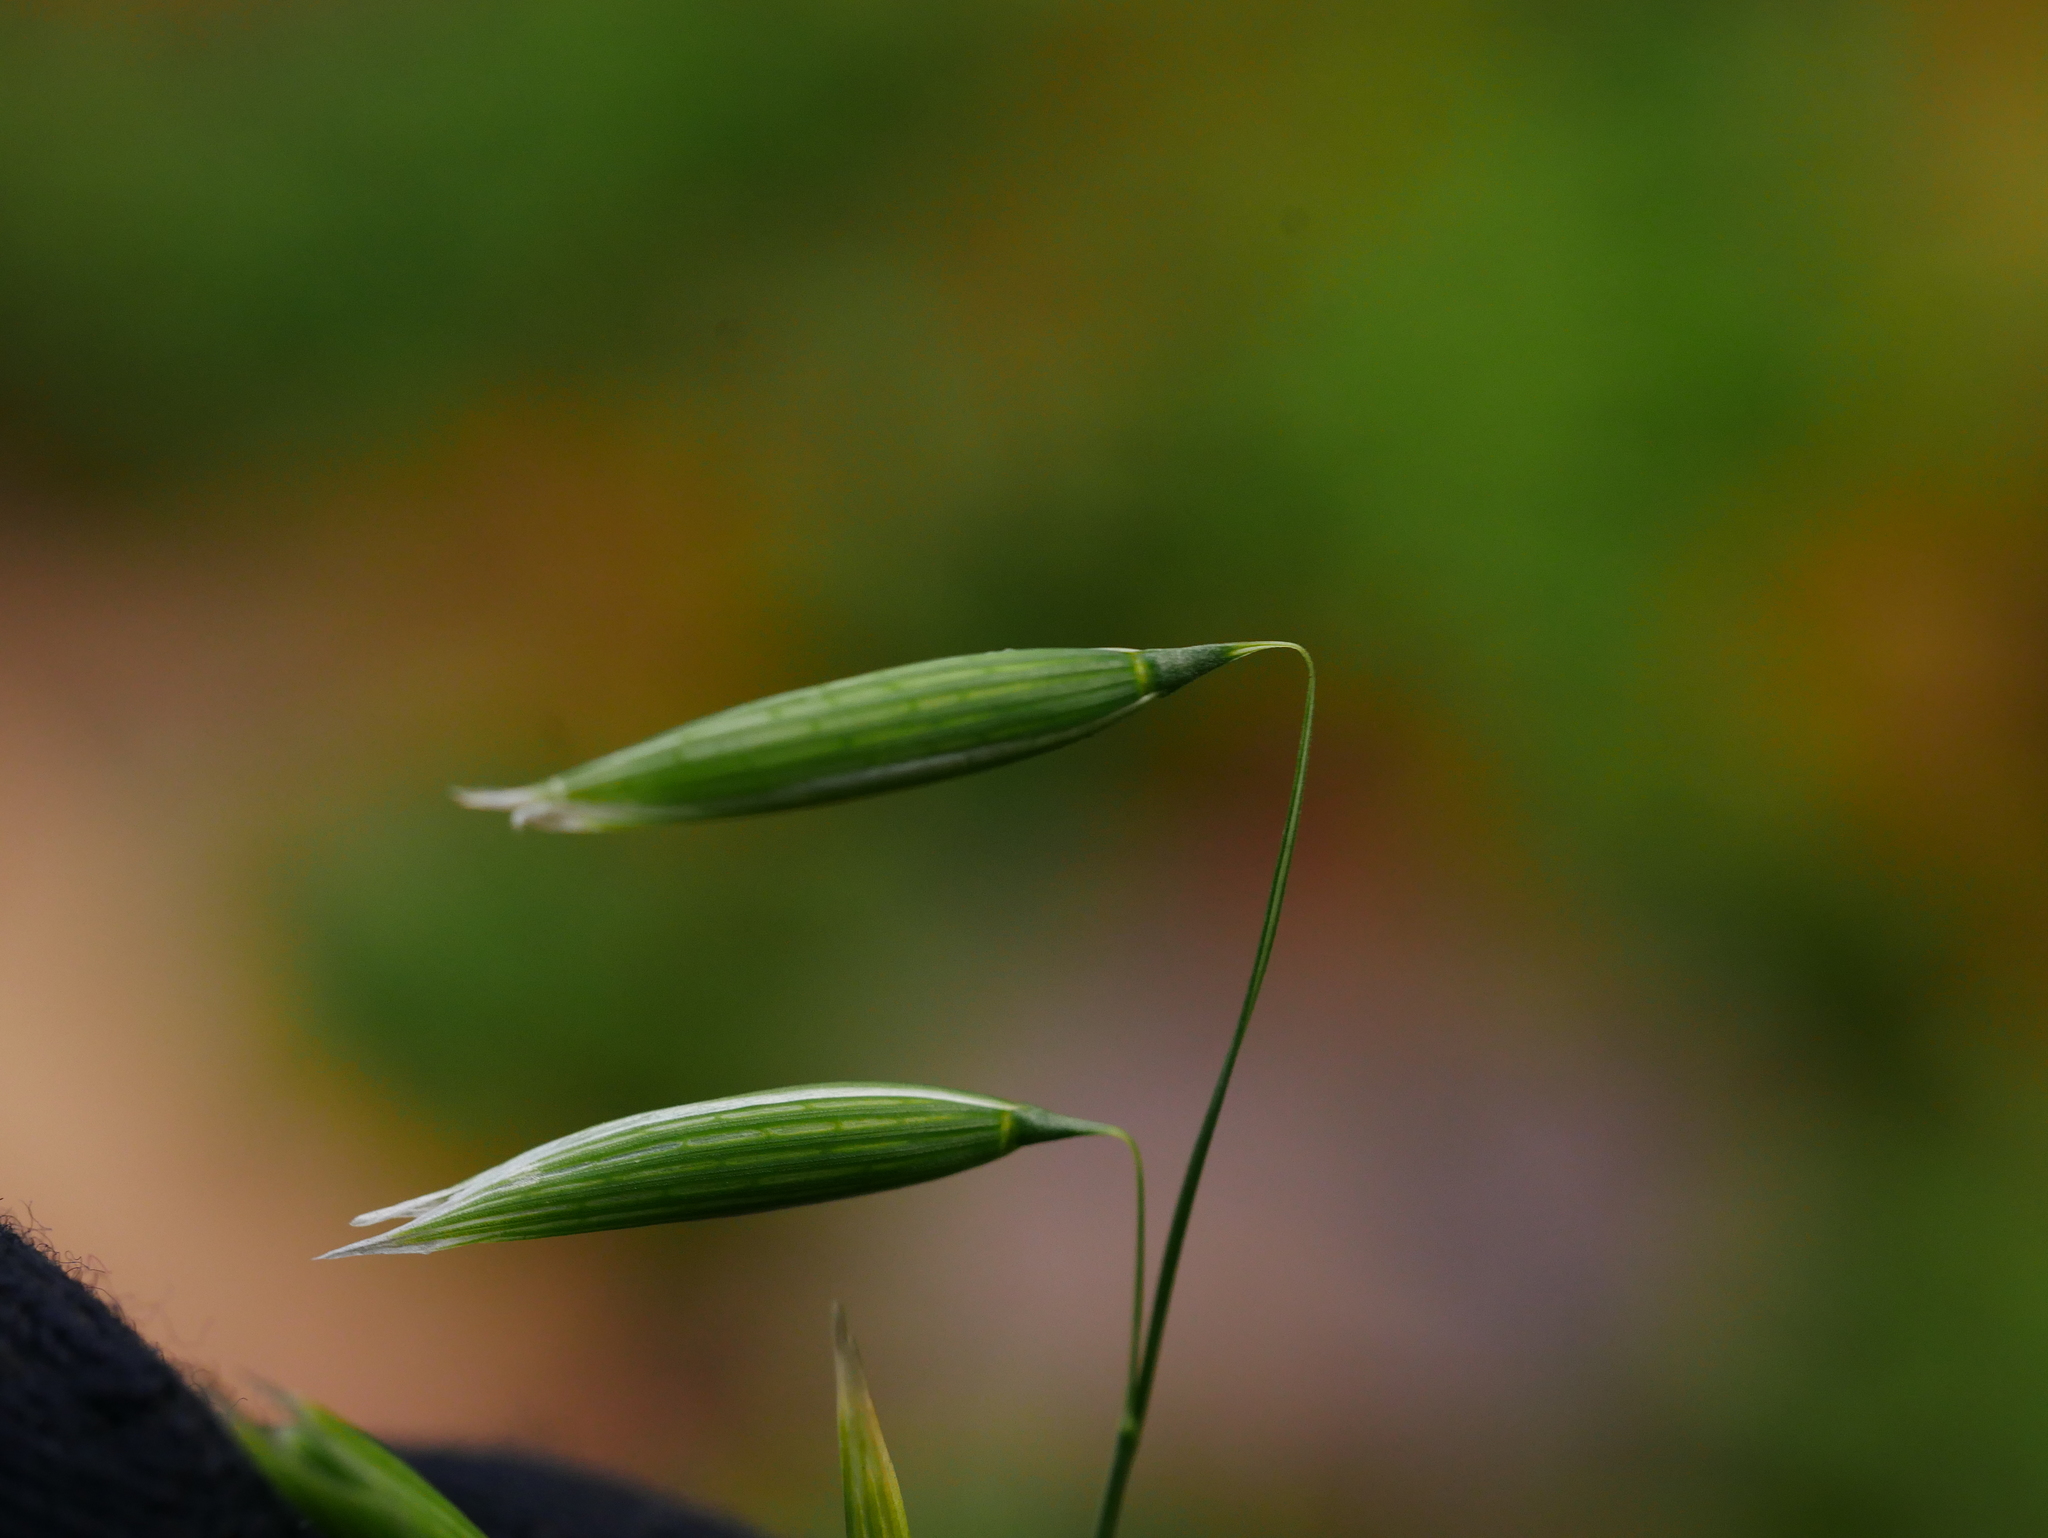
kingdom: Plantae
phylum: Tracheophyta
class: Liliopsida
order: Poales
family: Poaceae
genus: Avena
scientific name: Avena sativa
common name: Oat
